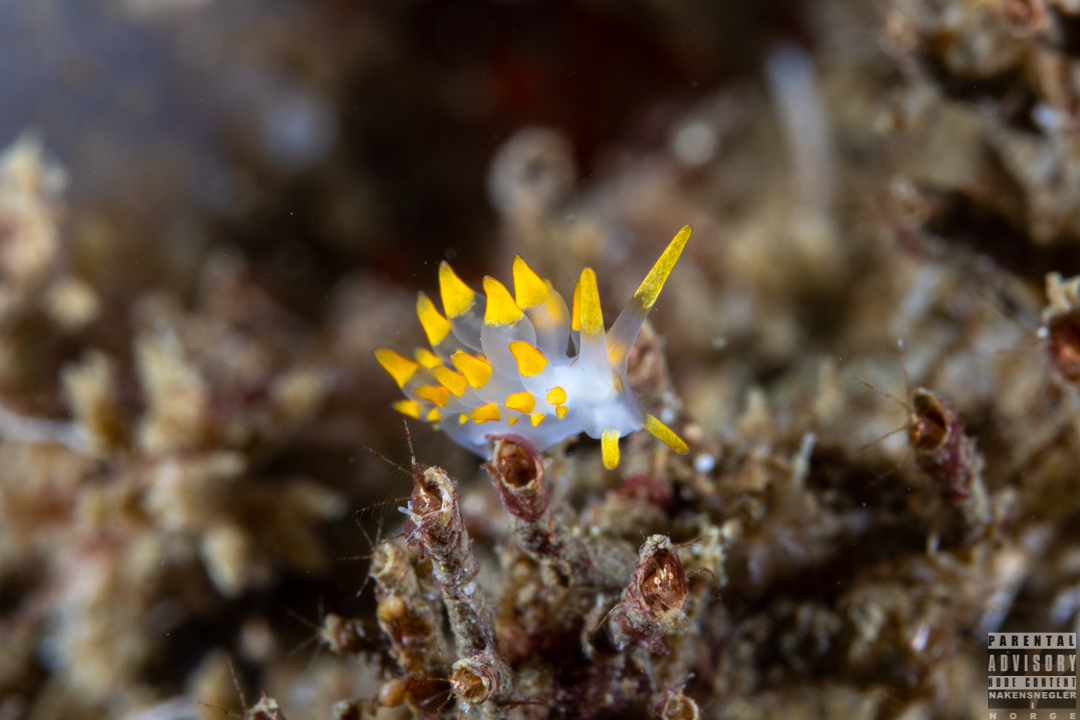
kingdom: Animalia
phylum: Mollusca
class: Gastropoda
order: Nudibranchia
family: Eubranchidae
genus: Amphorina
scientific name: Amphorina farrani
